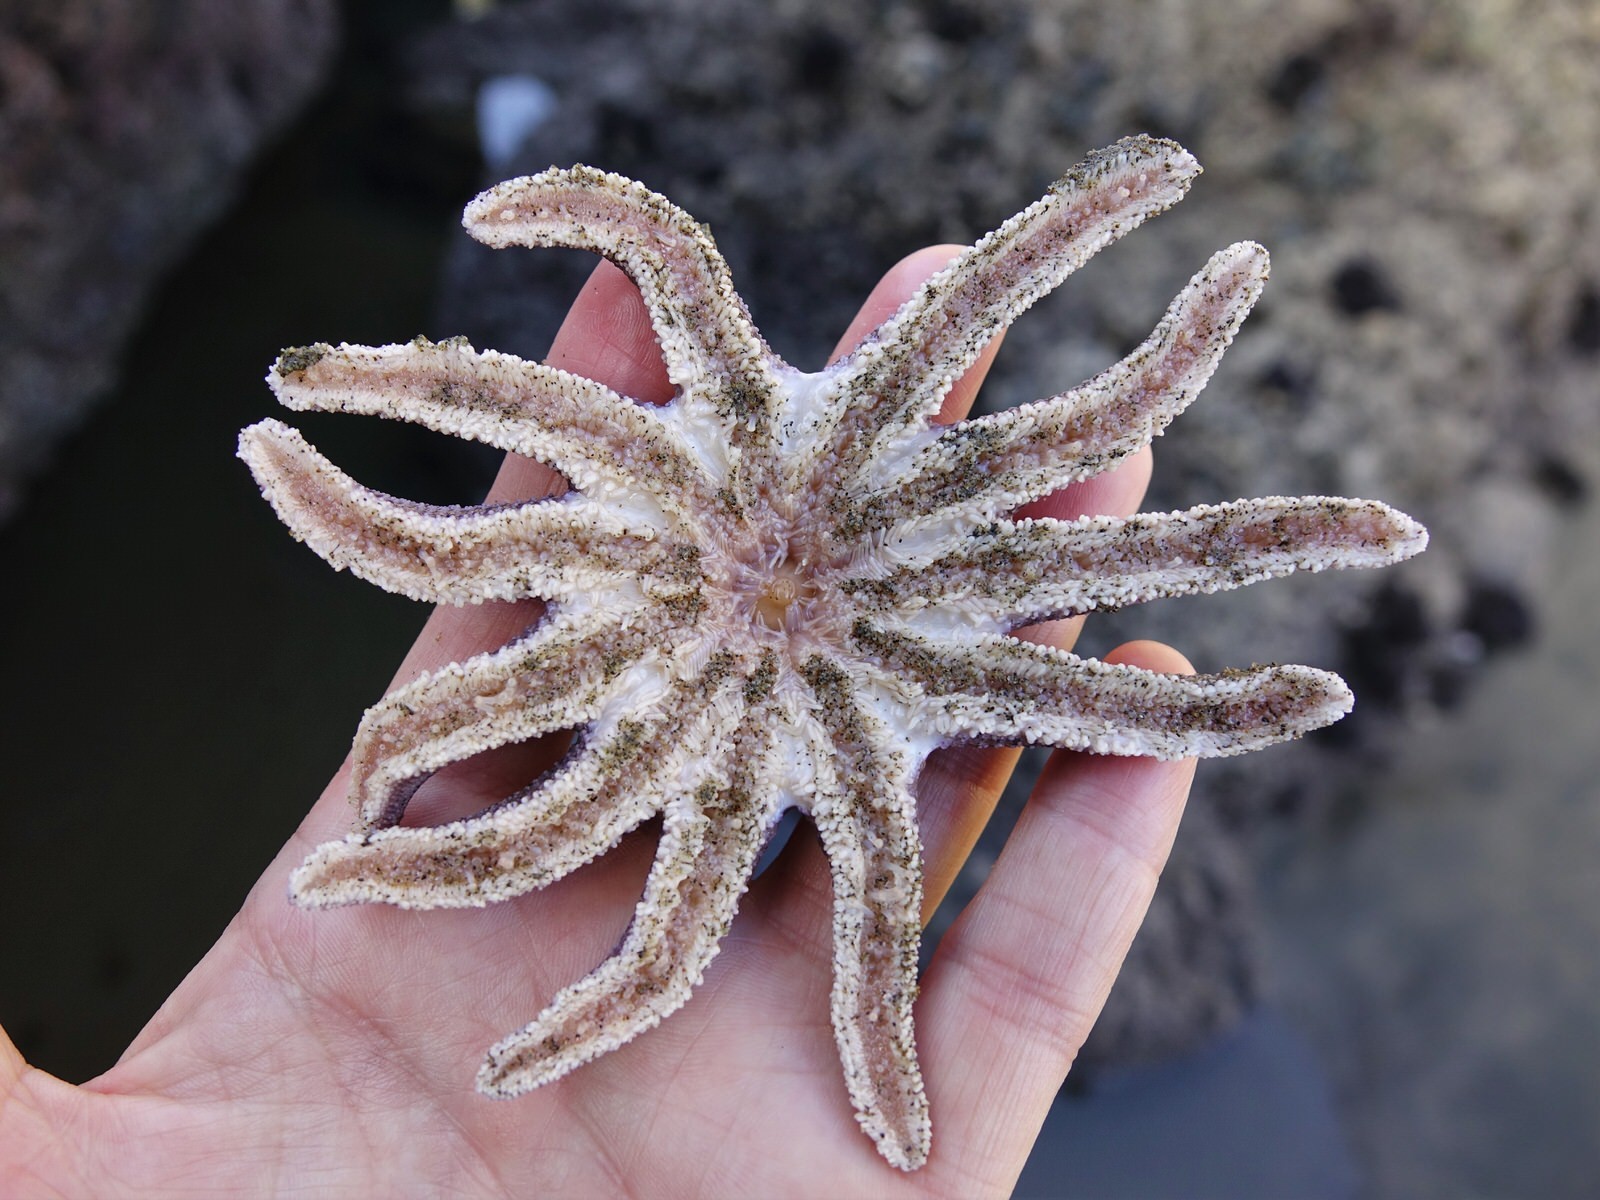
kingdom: Animalia
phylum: Echinodermata
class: Asteroidea
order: Forcipulatida
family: Stichasteridae
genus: Stichaster
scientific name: Stichaster australis
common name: Reef starfish
